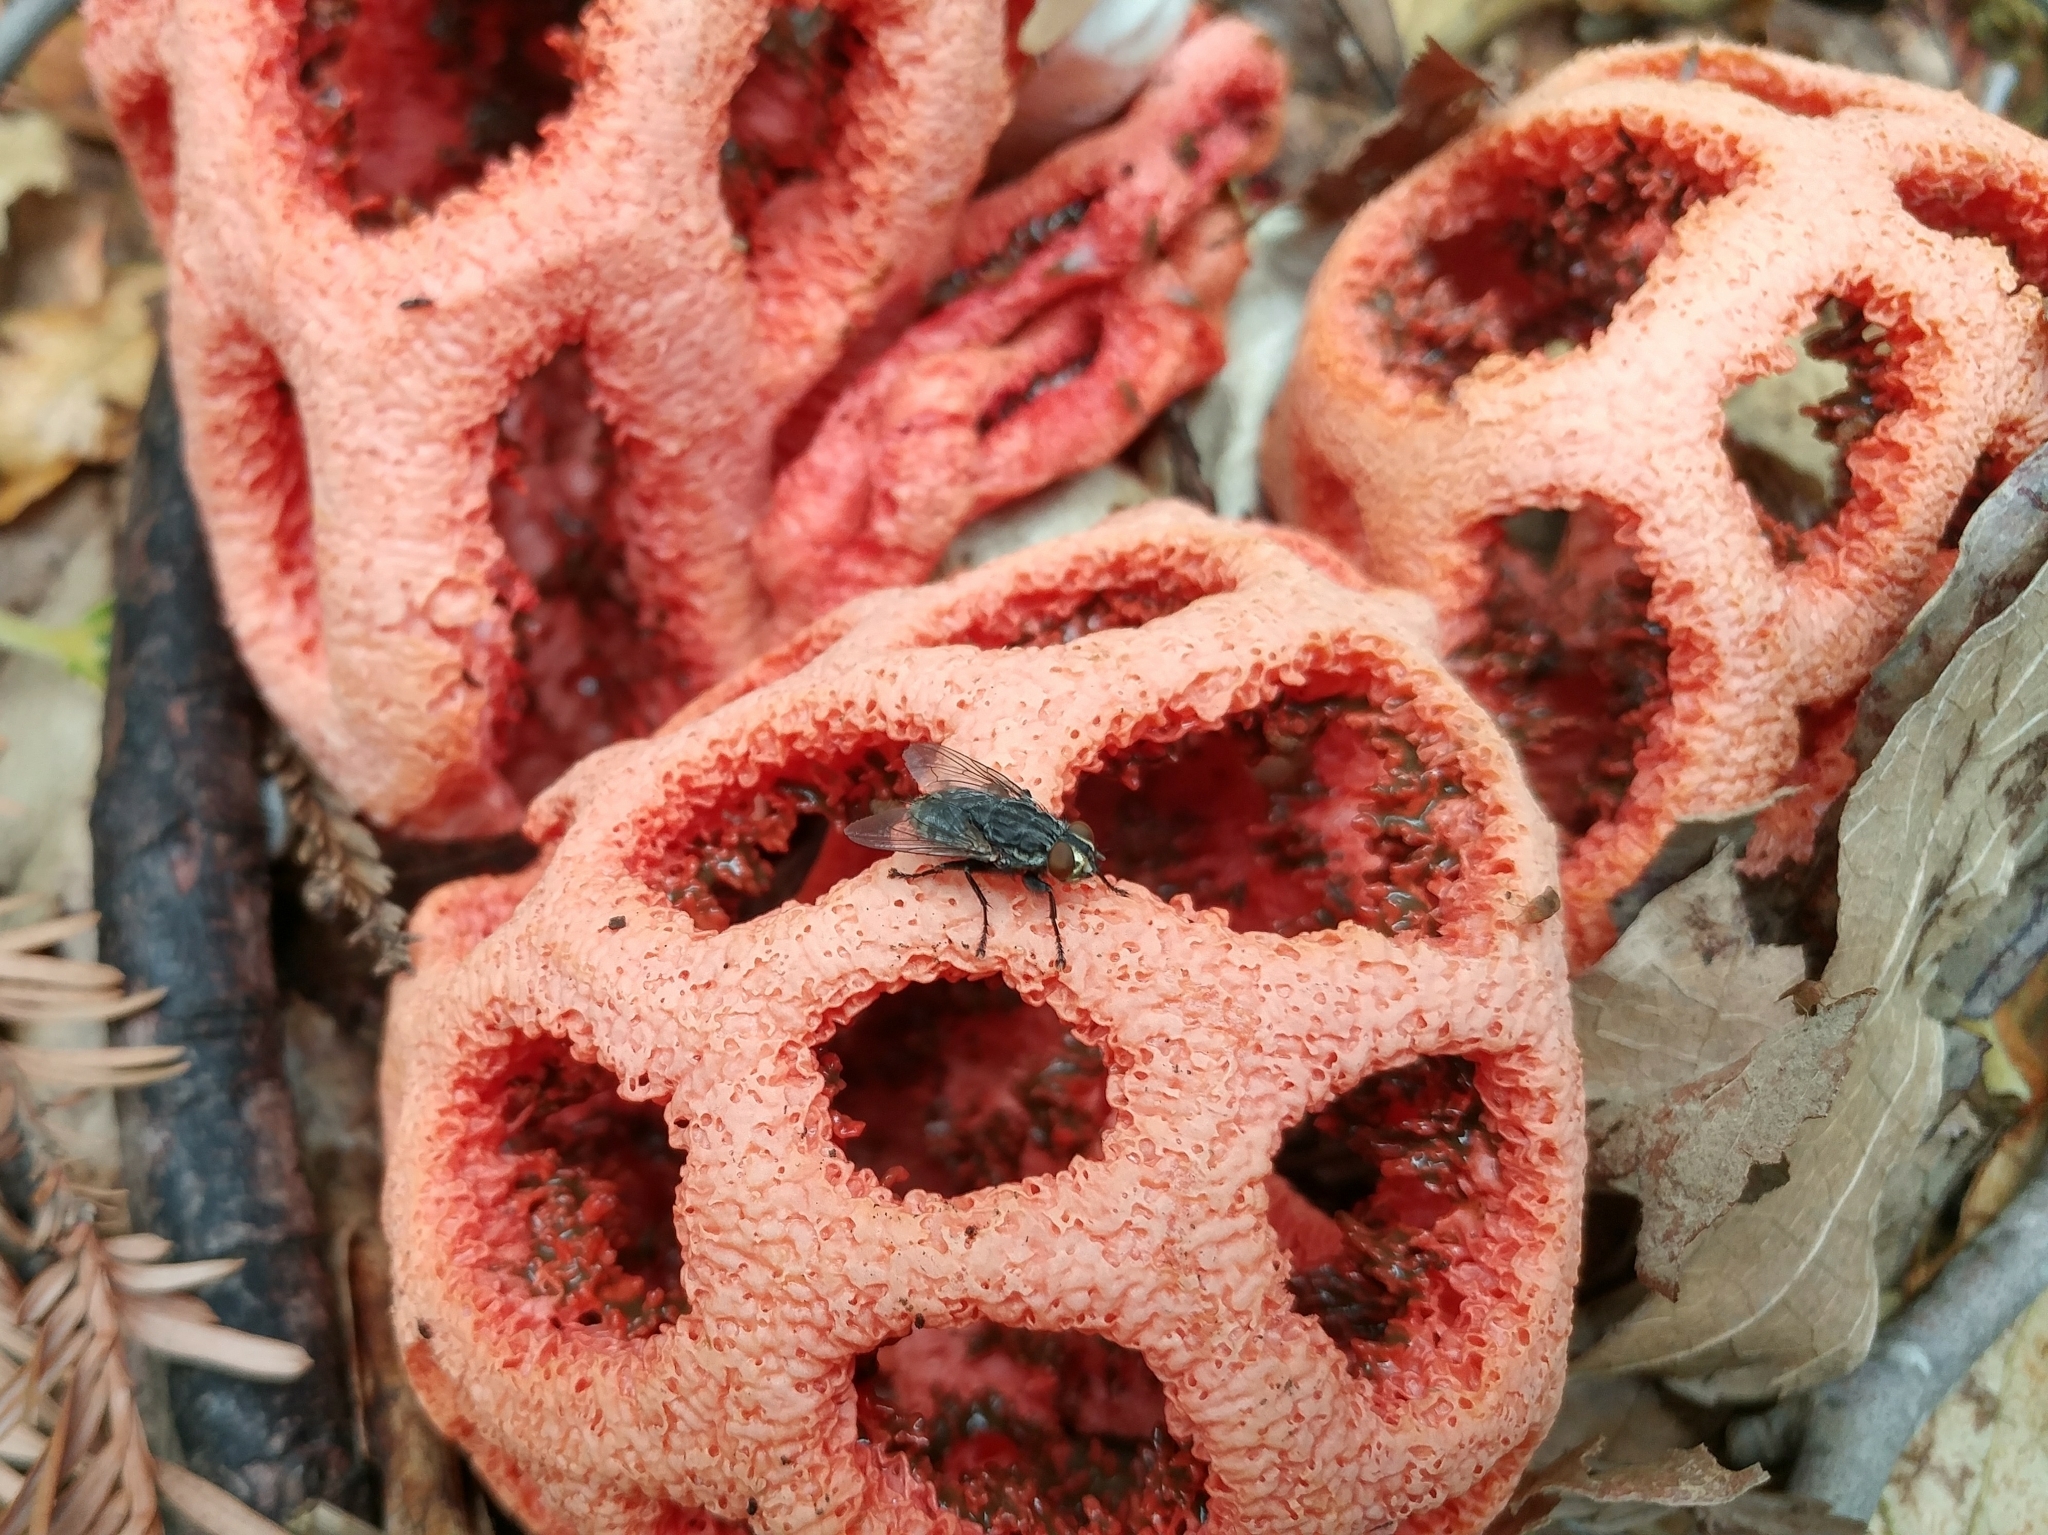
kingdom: Fungi
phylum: Basidiomycota
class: Agaricomycetes
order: Phallales
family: Phallaceae
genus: Clathrus
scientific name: Clathrus ruber
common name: Red cage
